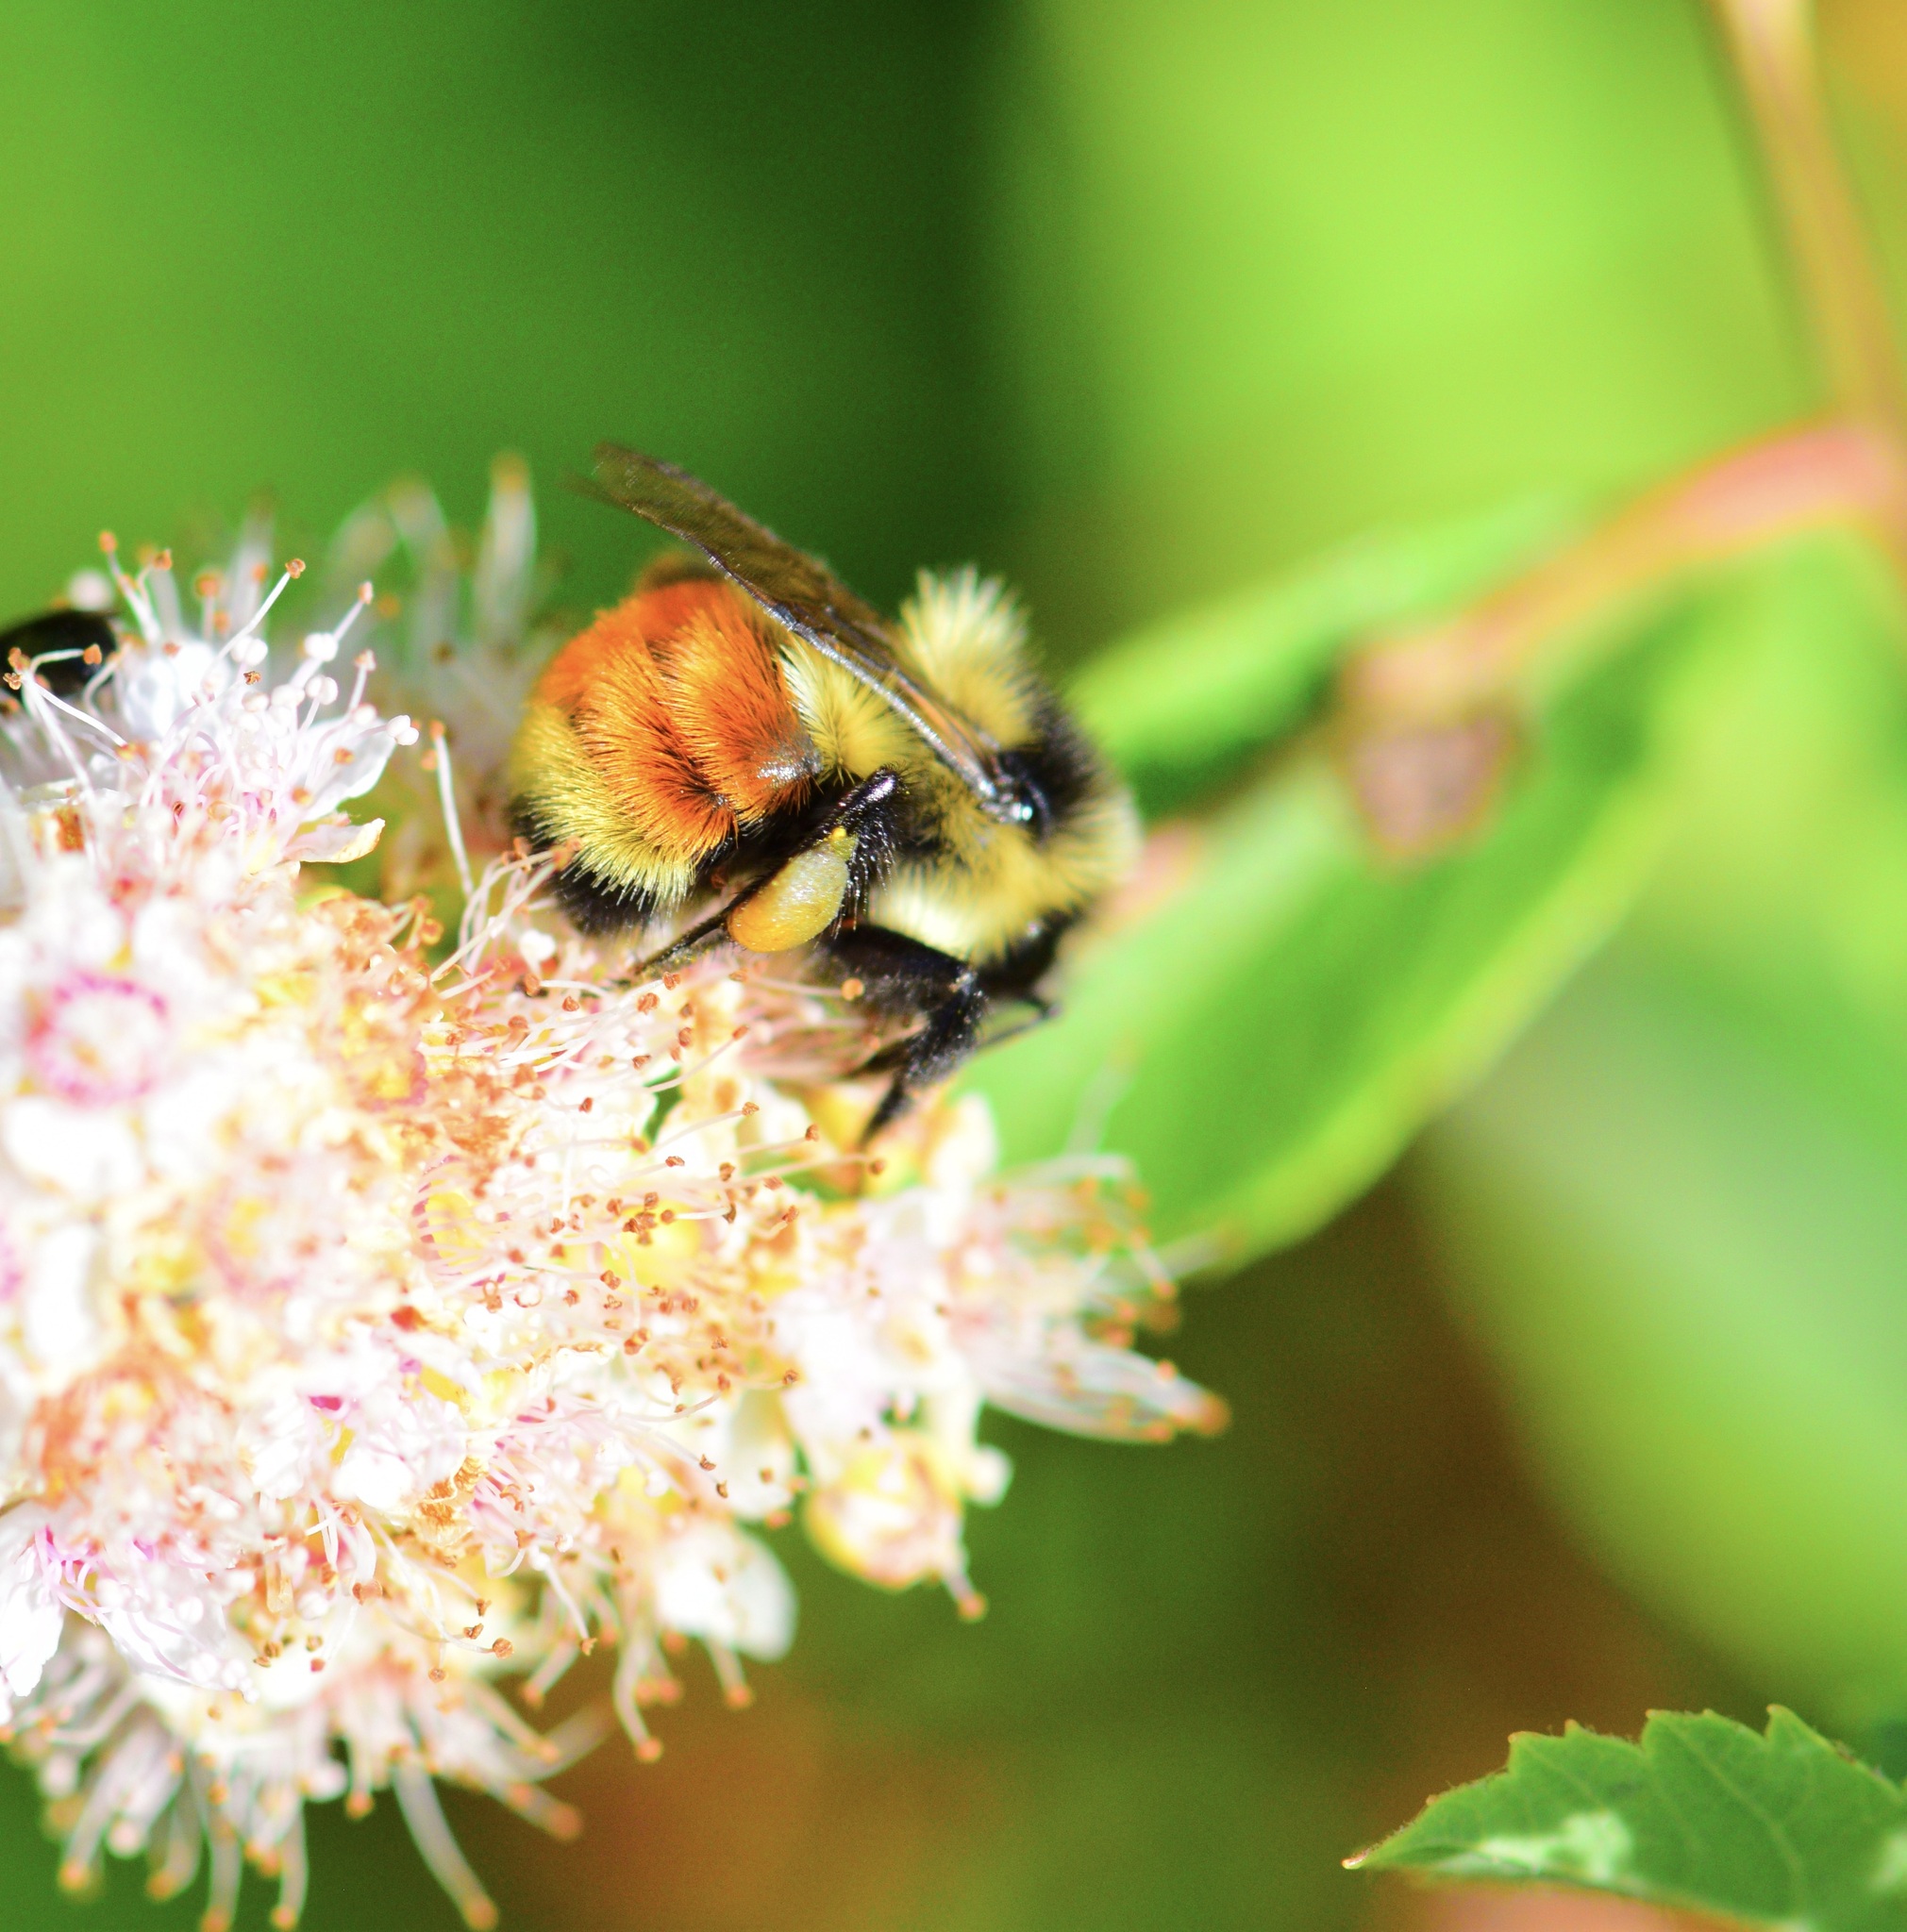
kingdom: Animalia
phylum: Arthropoda
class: Insecta
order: Hymenoptera
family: Apidae
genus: Bombus
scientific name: Bombus ternarius
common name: Tri-colored bumble bee
